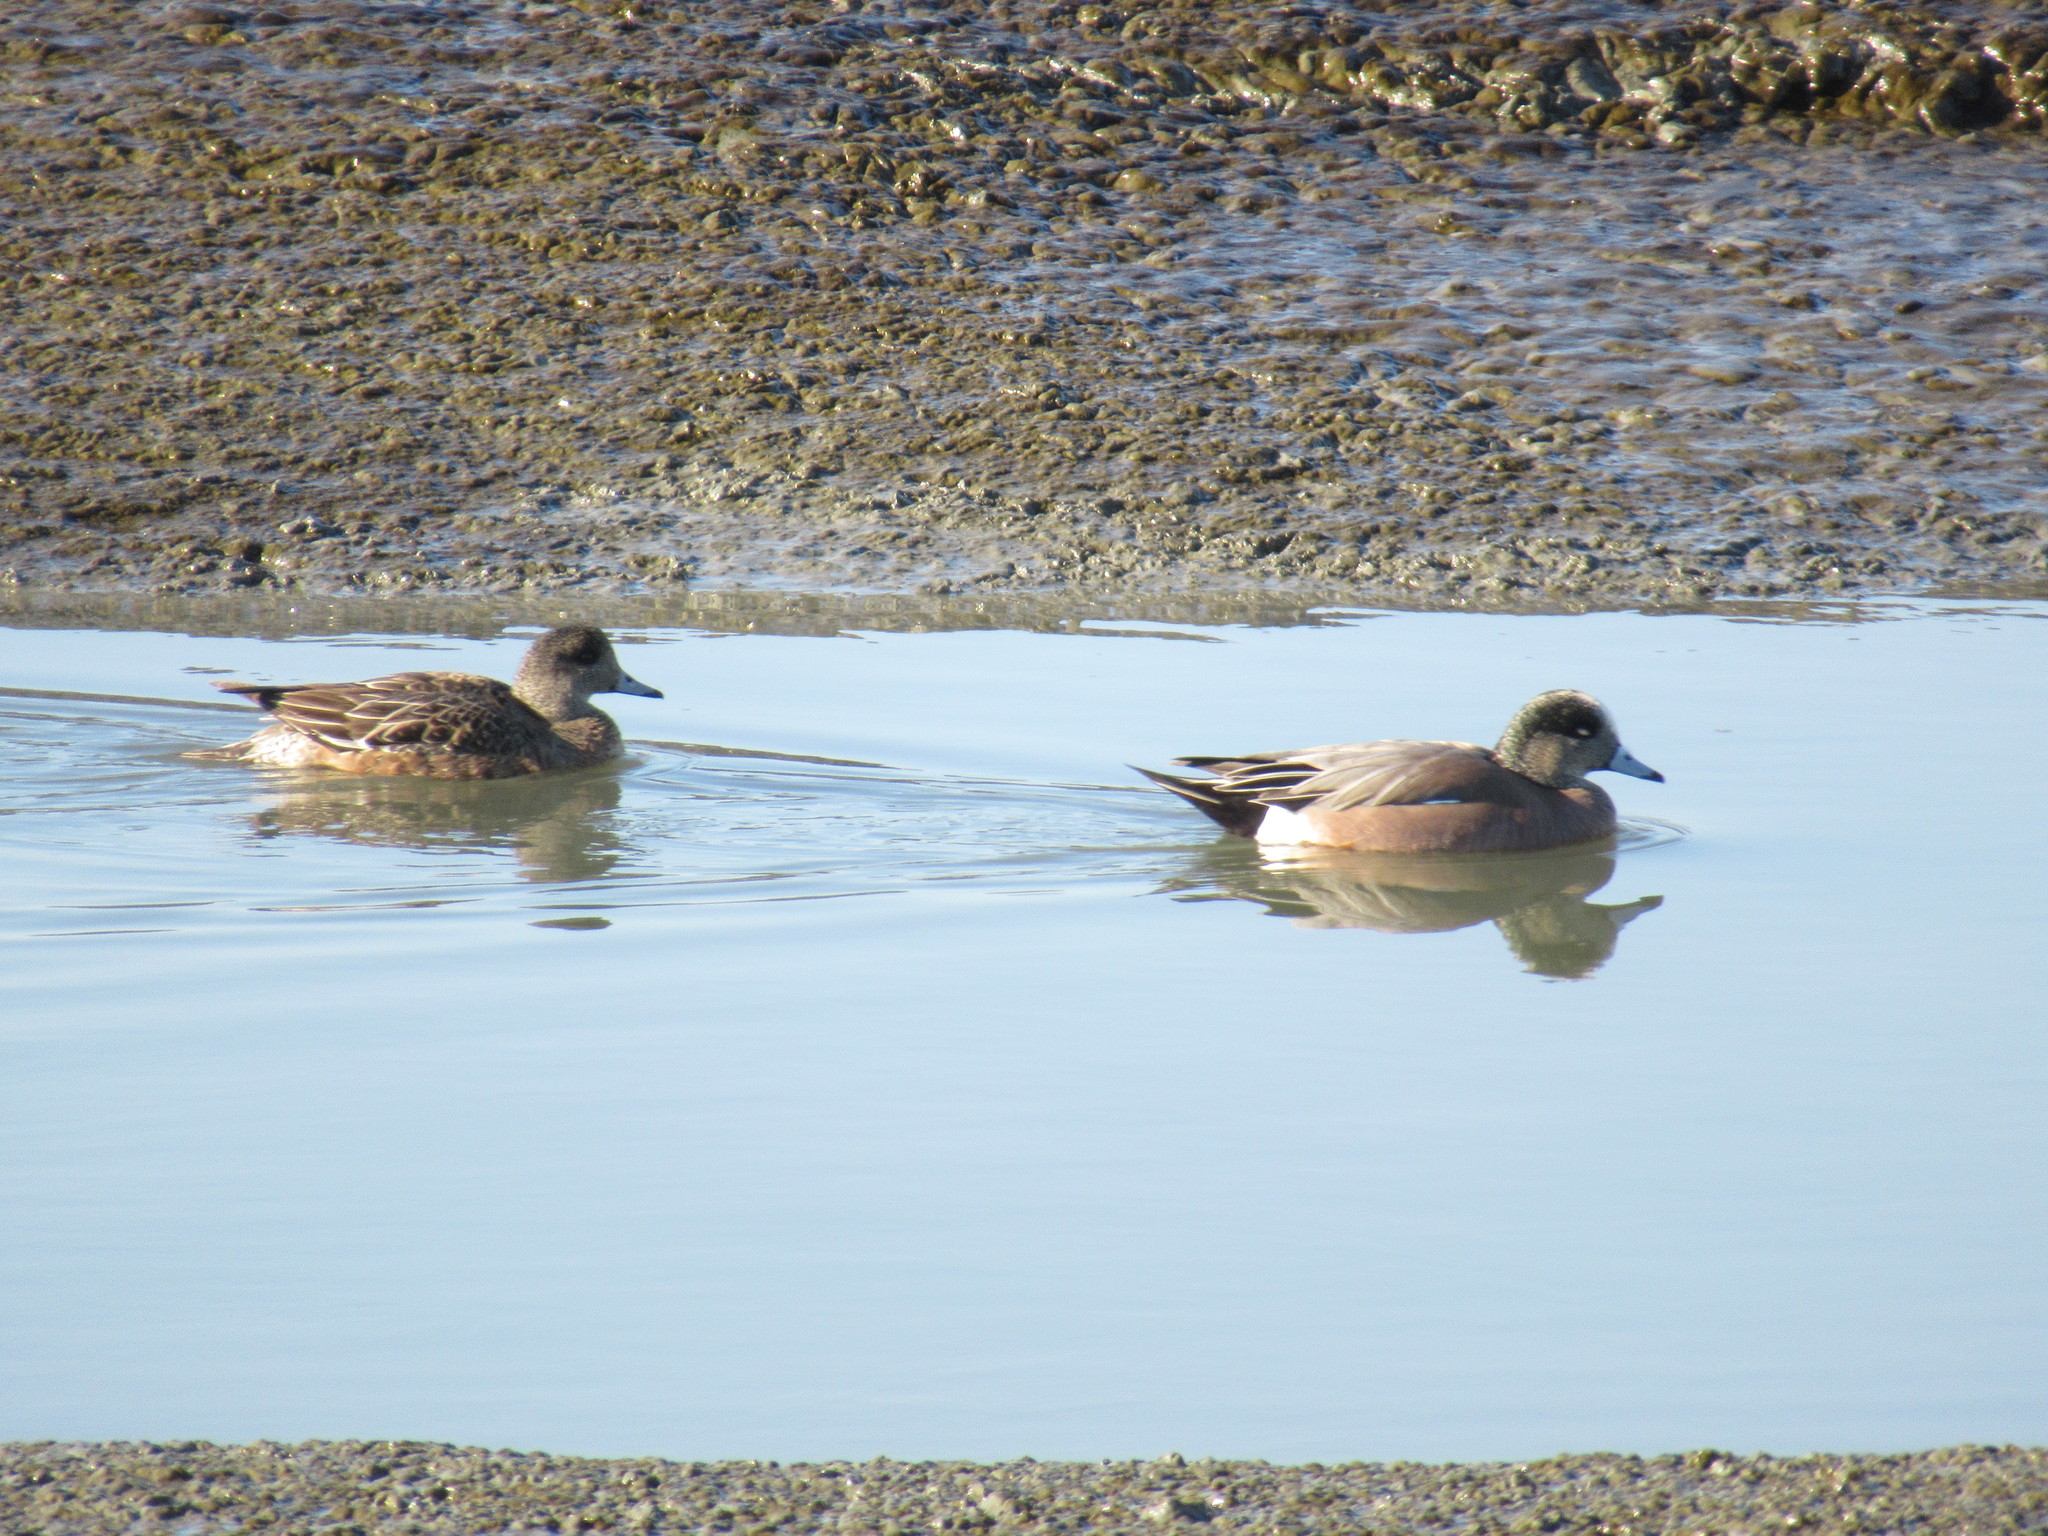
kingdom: Animalia
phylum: Chordata
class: Aves
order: Anseriformes
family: Anatidae
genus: Mareca
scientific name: Mareca americana
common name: American wigeon
